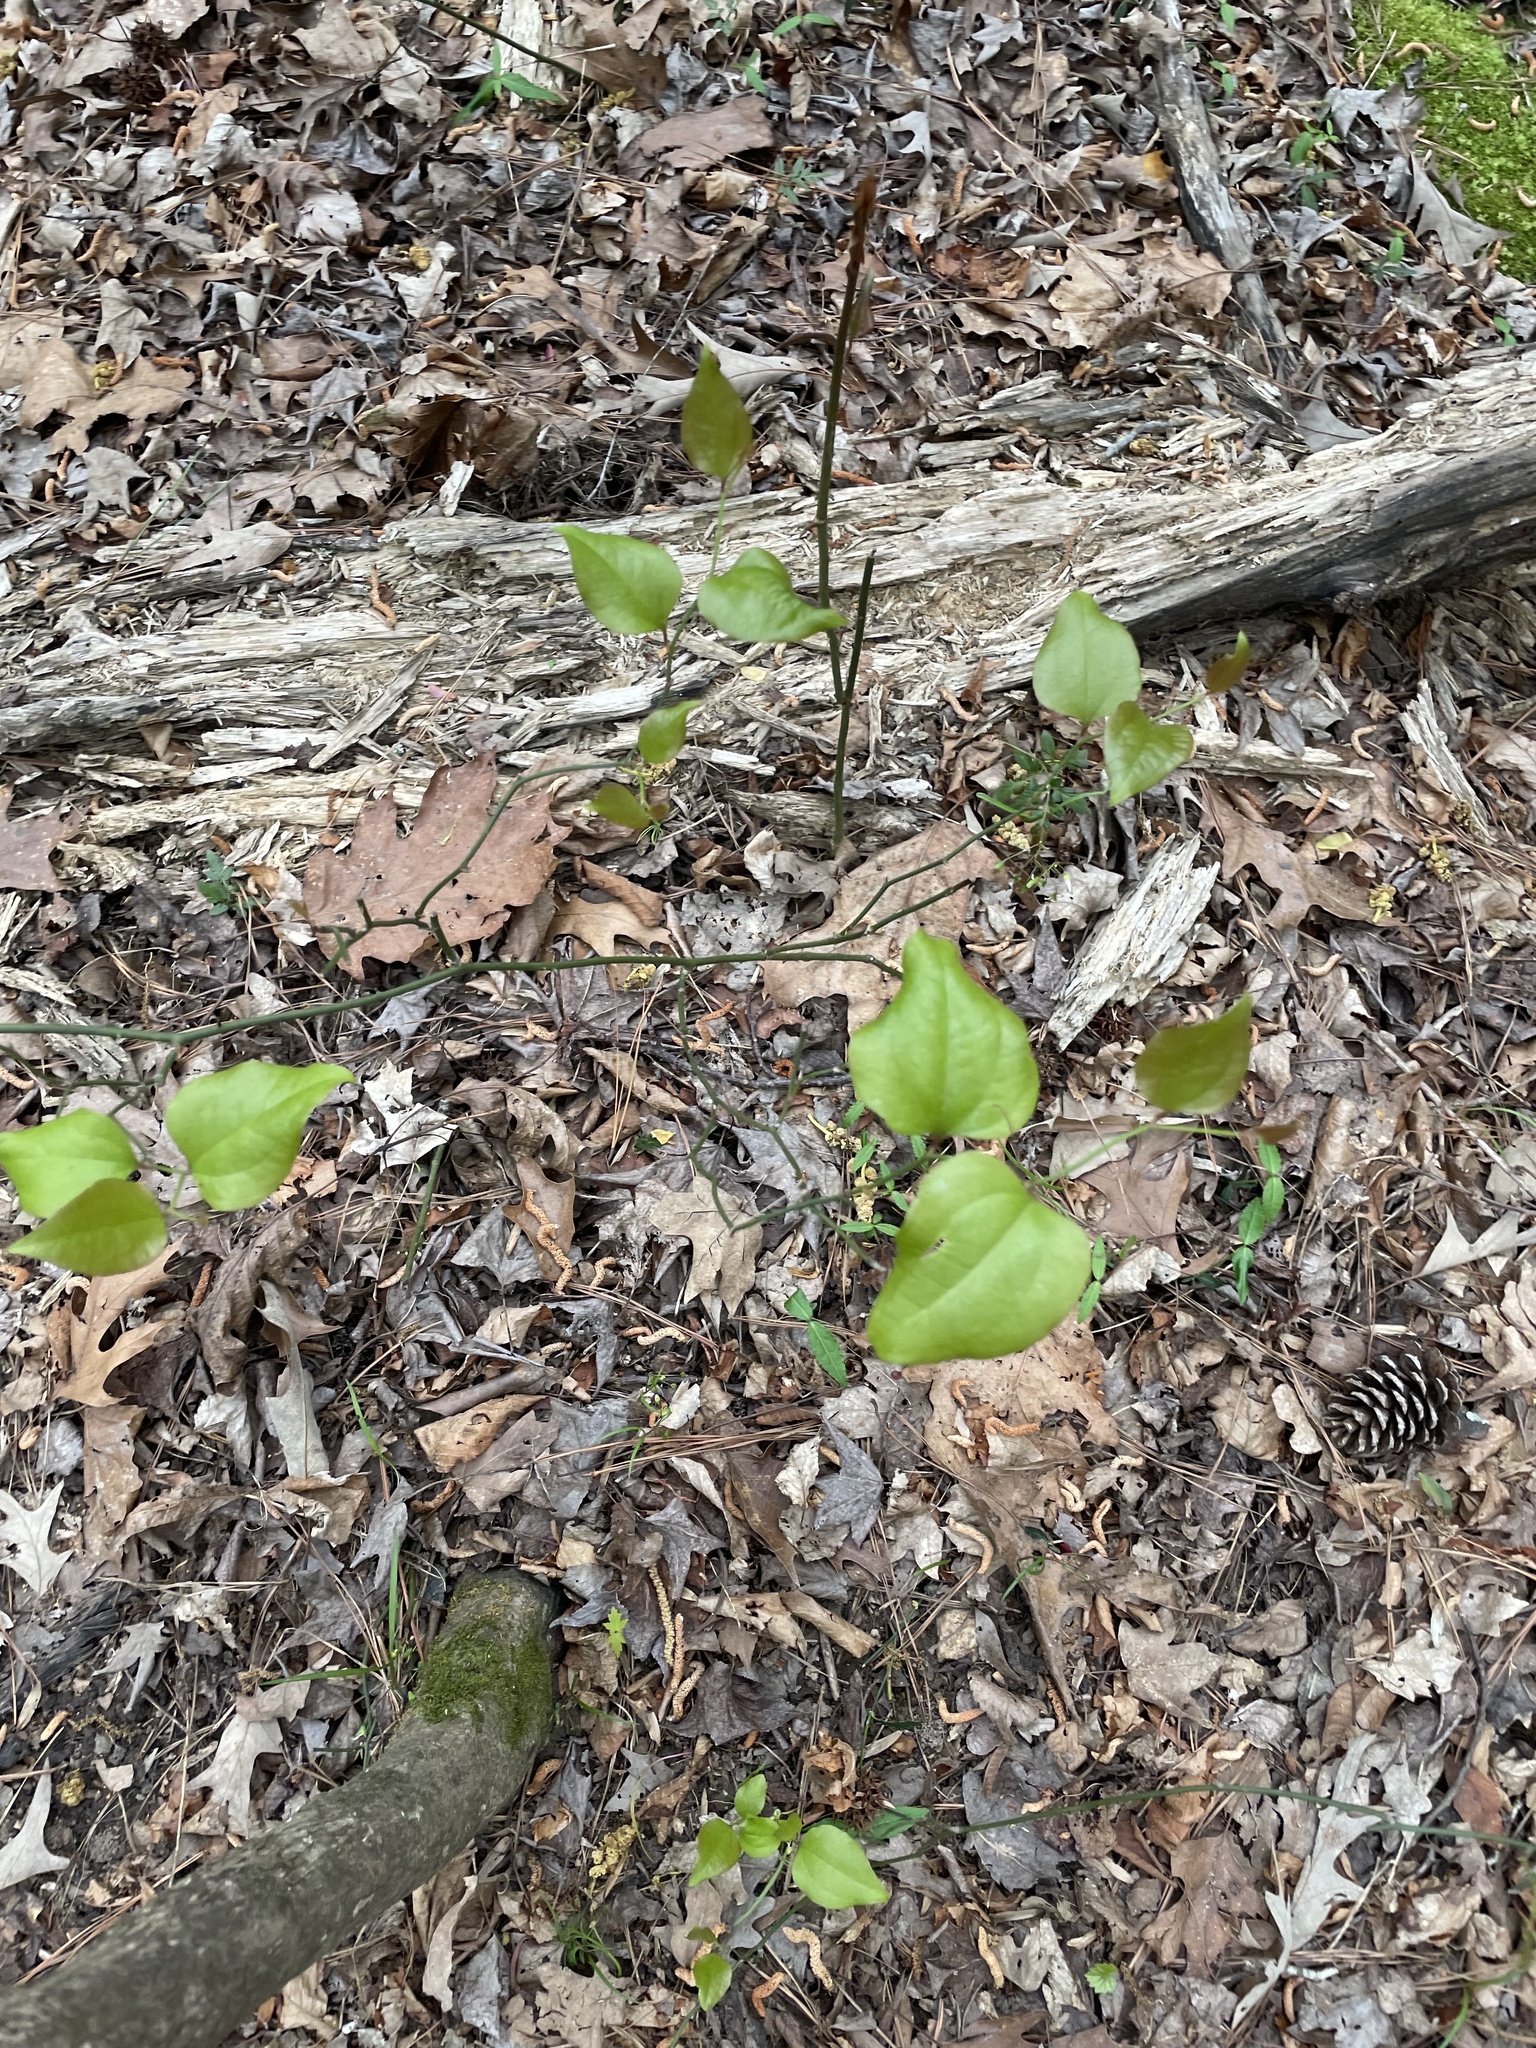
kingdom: Plantae
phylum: Tracheophyta
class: Liliopsida
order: Liliales
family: Smilacaceae
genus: Smilax
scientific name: Smilax rotundifolia
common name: Bullbriar
